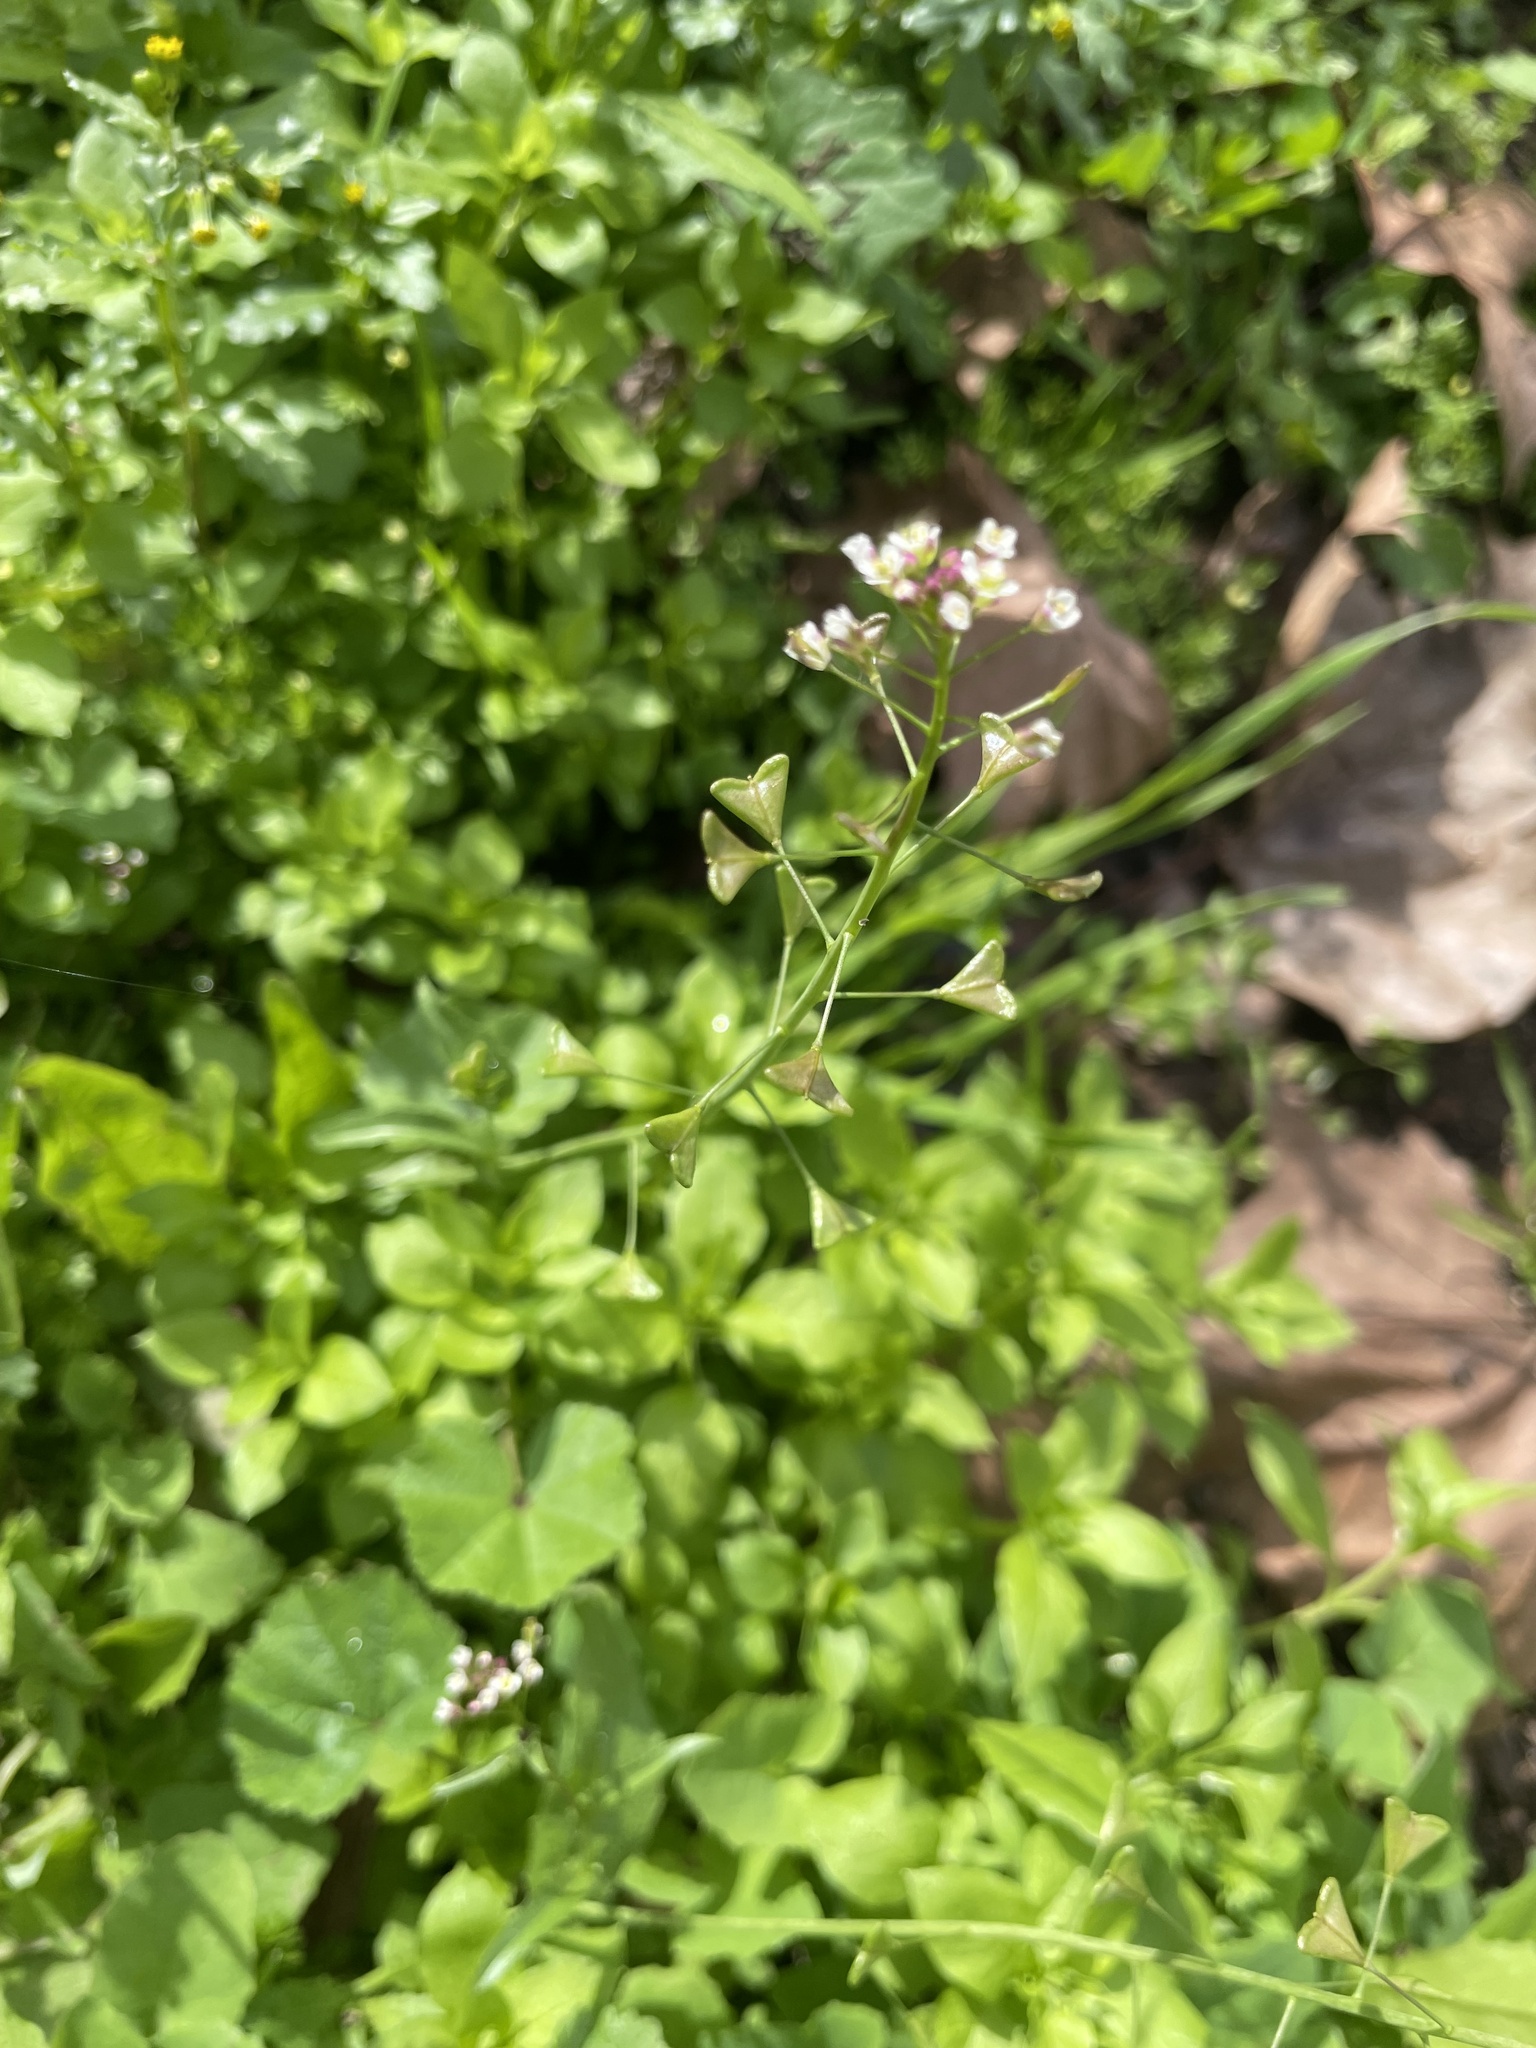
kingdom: Plantae
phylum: Tracheophyta
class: Magnoliopsida
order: Brassicales
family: Brassicaceae
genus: Capsella
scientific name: Capsella bursa-pastoris
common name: Shepherd's purse
